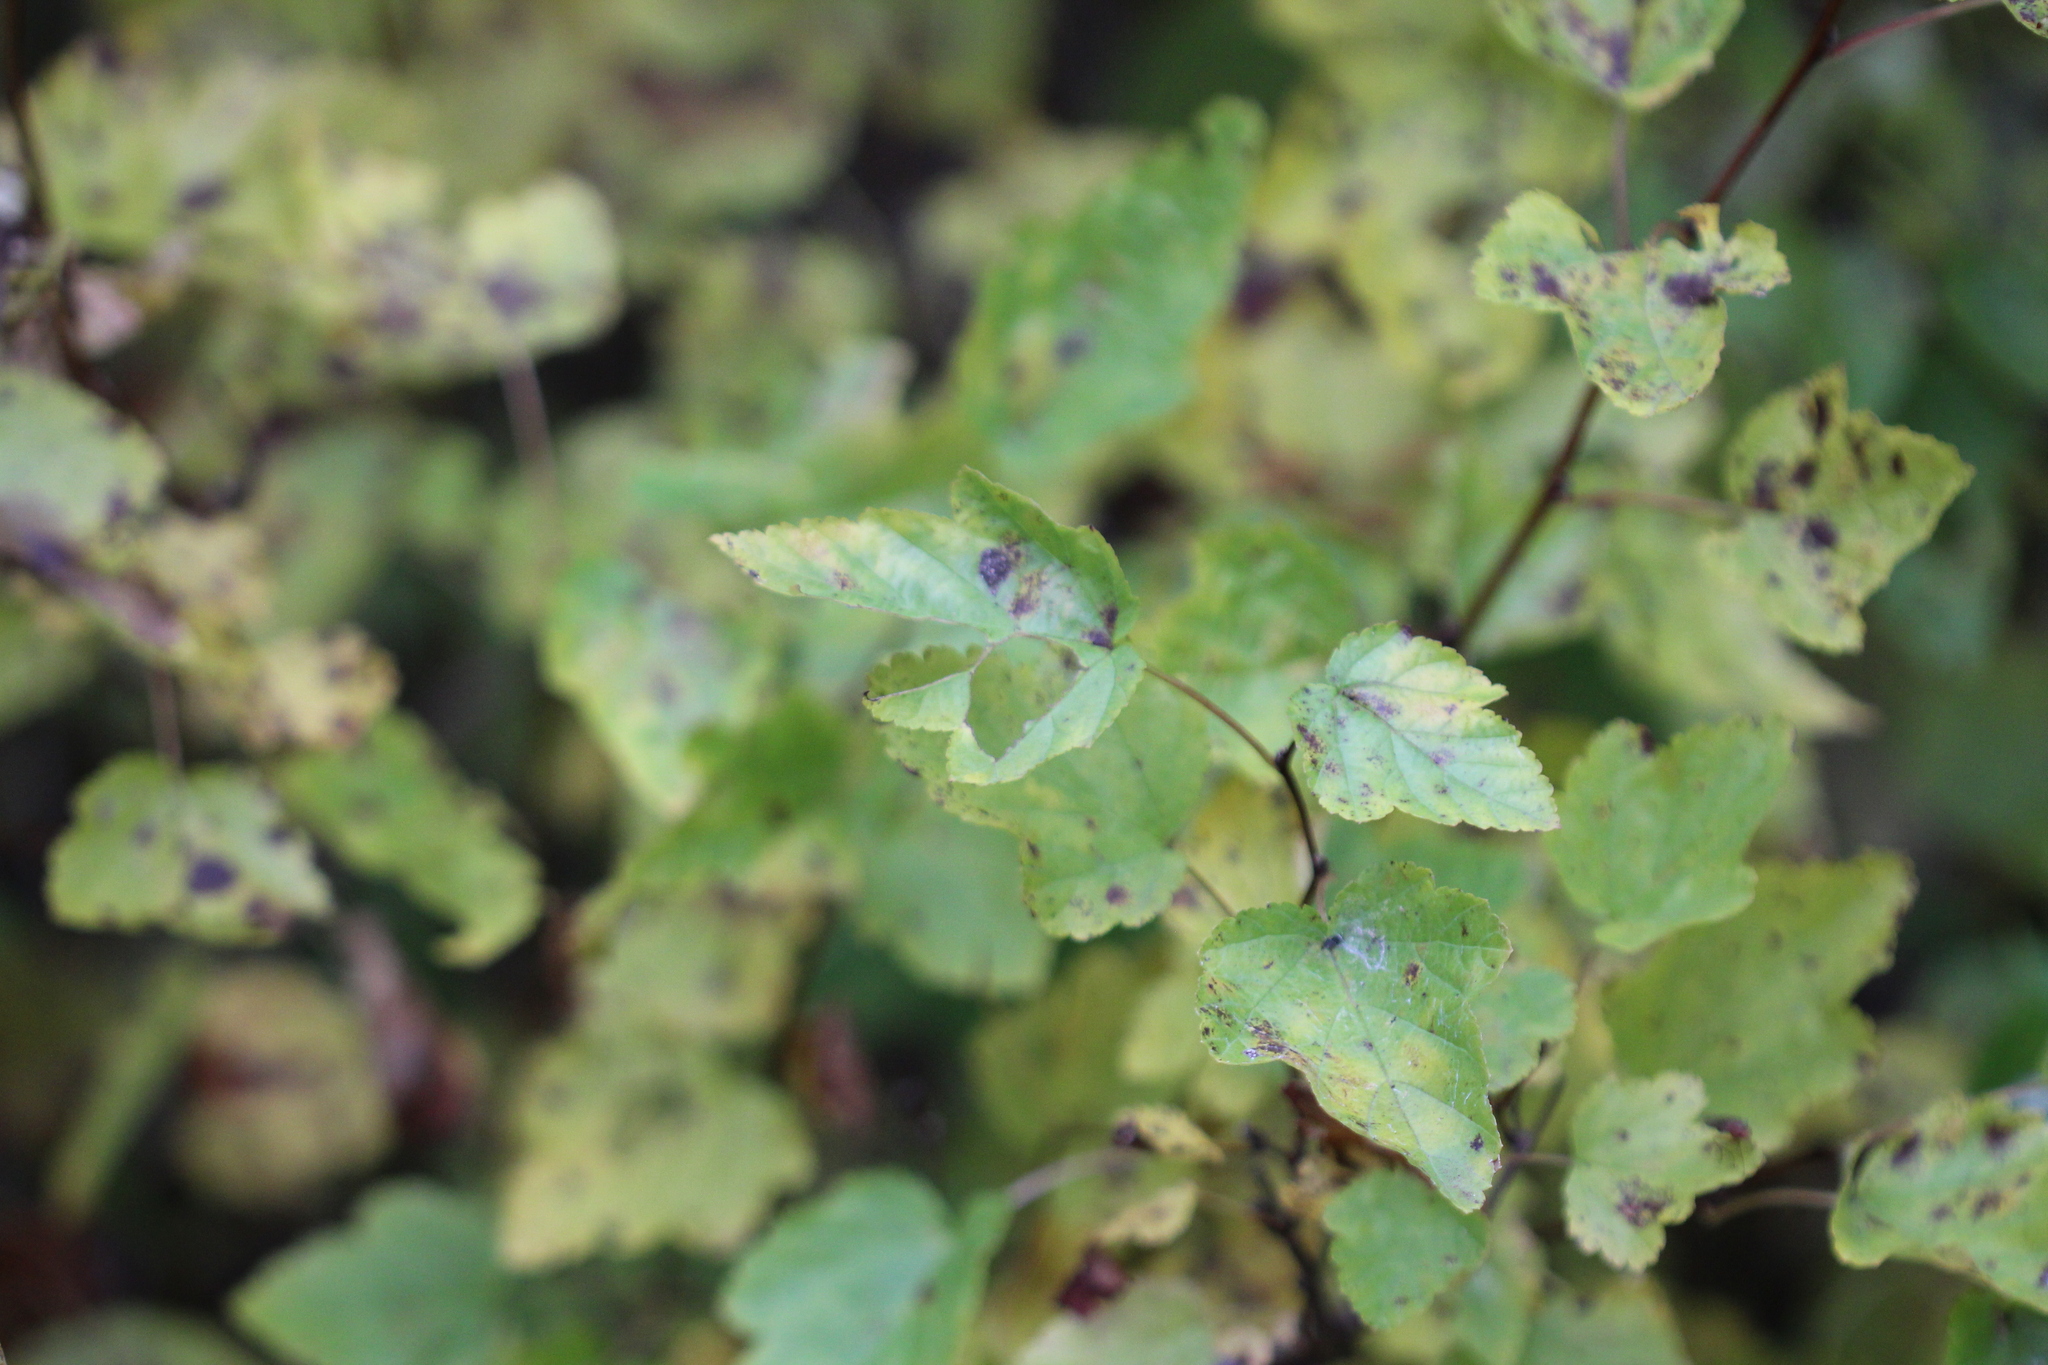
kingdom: Plantae
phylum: Tracheophyta
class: Magnoliopsida
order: Rosales
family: Rosaceae
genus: Physocarpus
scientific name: Physocarpus opulifolius
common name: Ninebark
